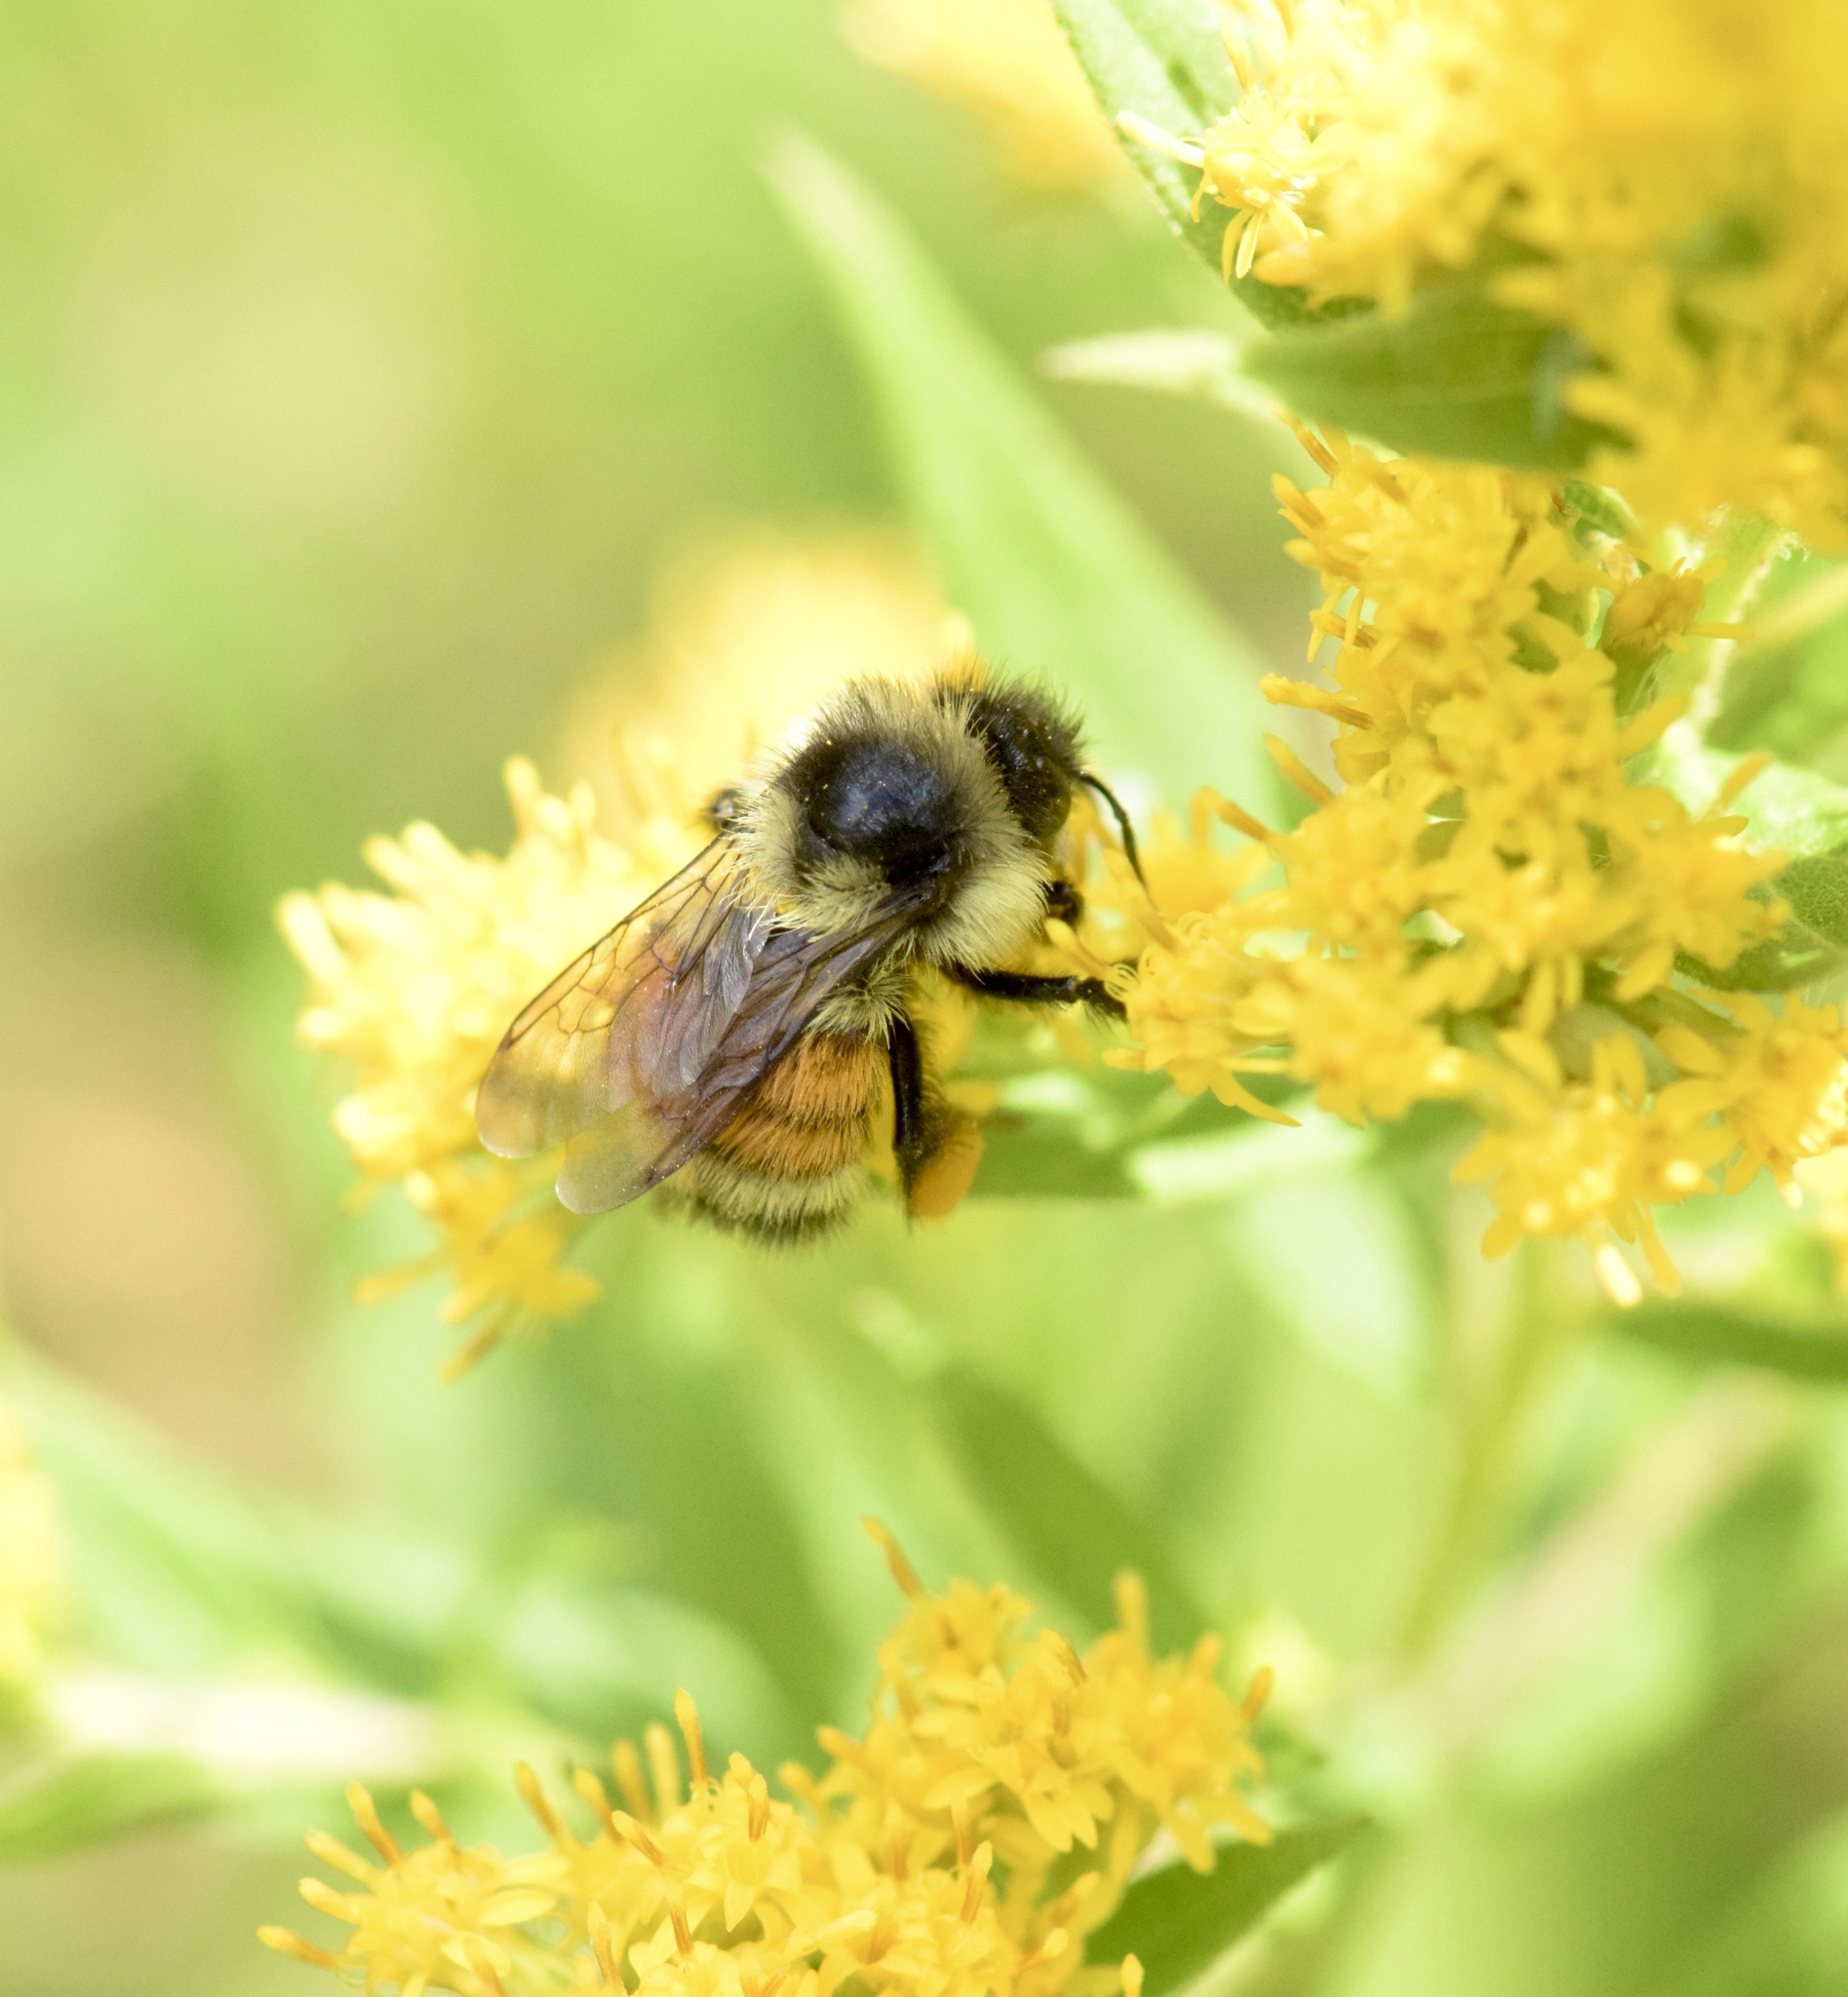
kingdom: Animalia
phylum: Arthropoda
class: Insecta
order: Hymenoptera
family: Apidae
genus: Bombus
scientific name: Bombus ternarius
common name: Tri-colored bumble bee
